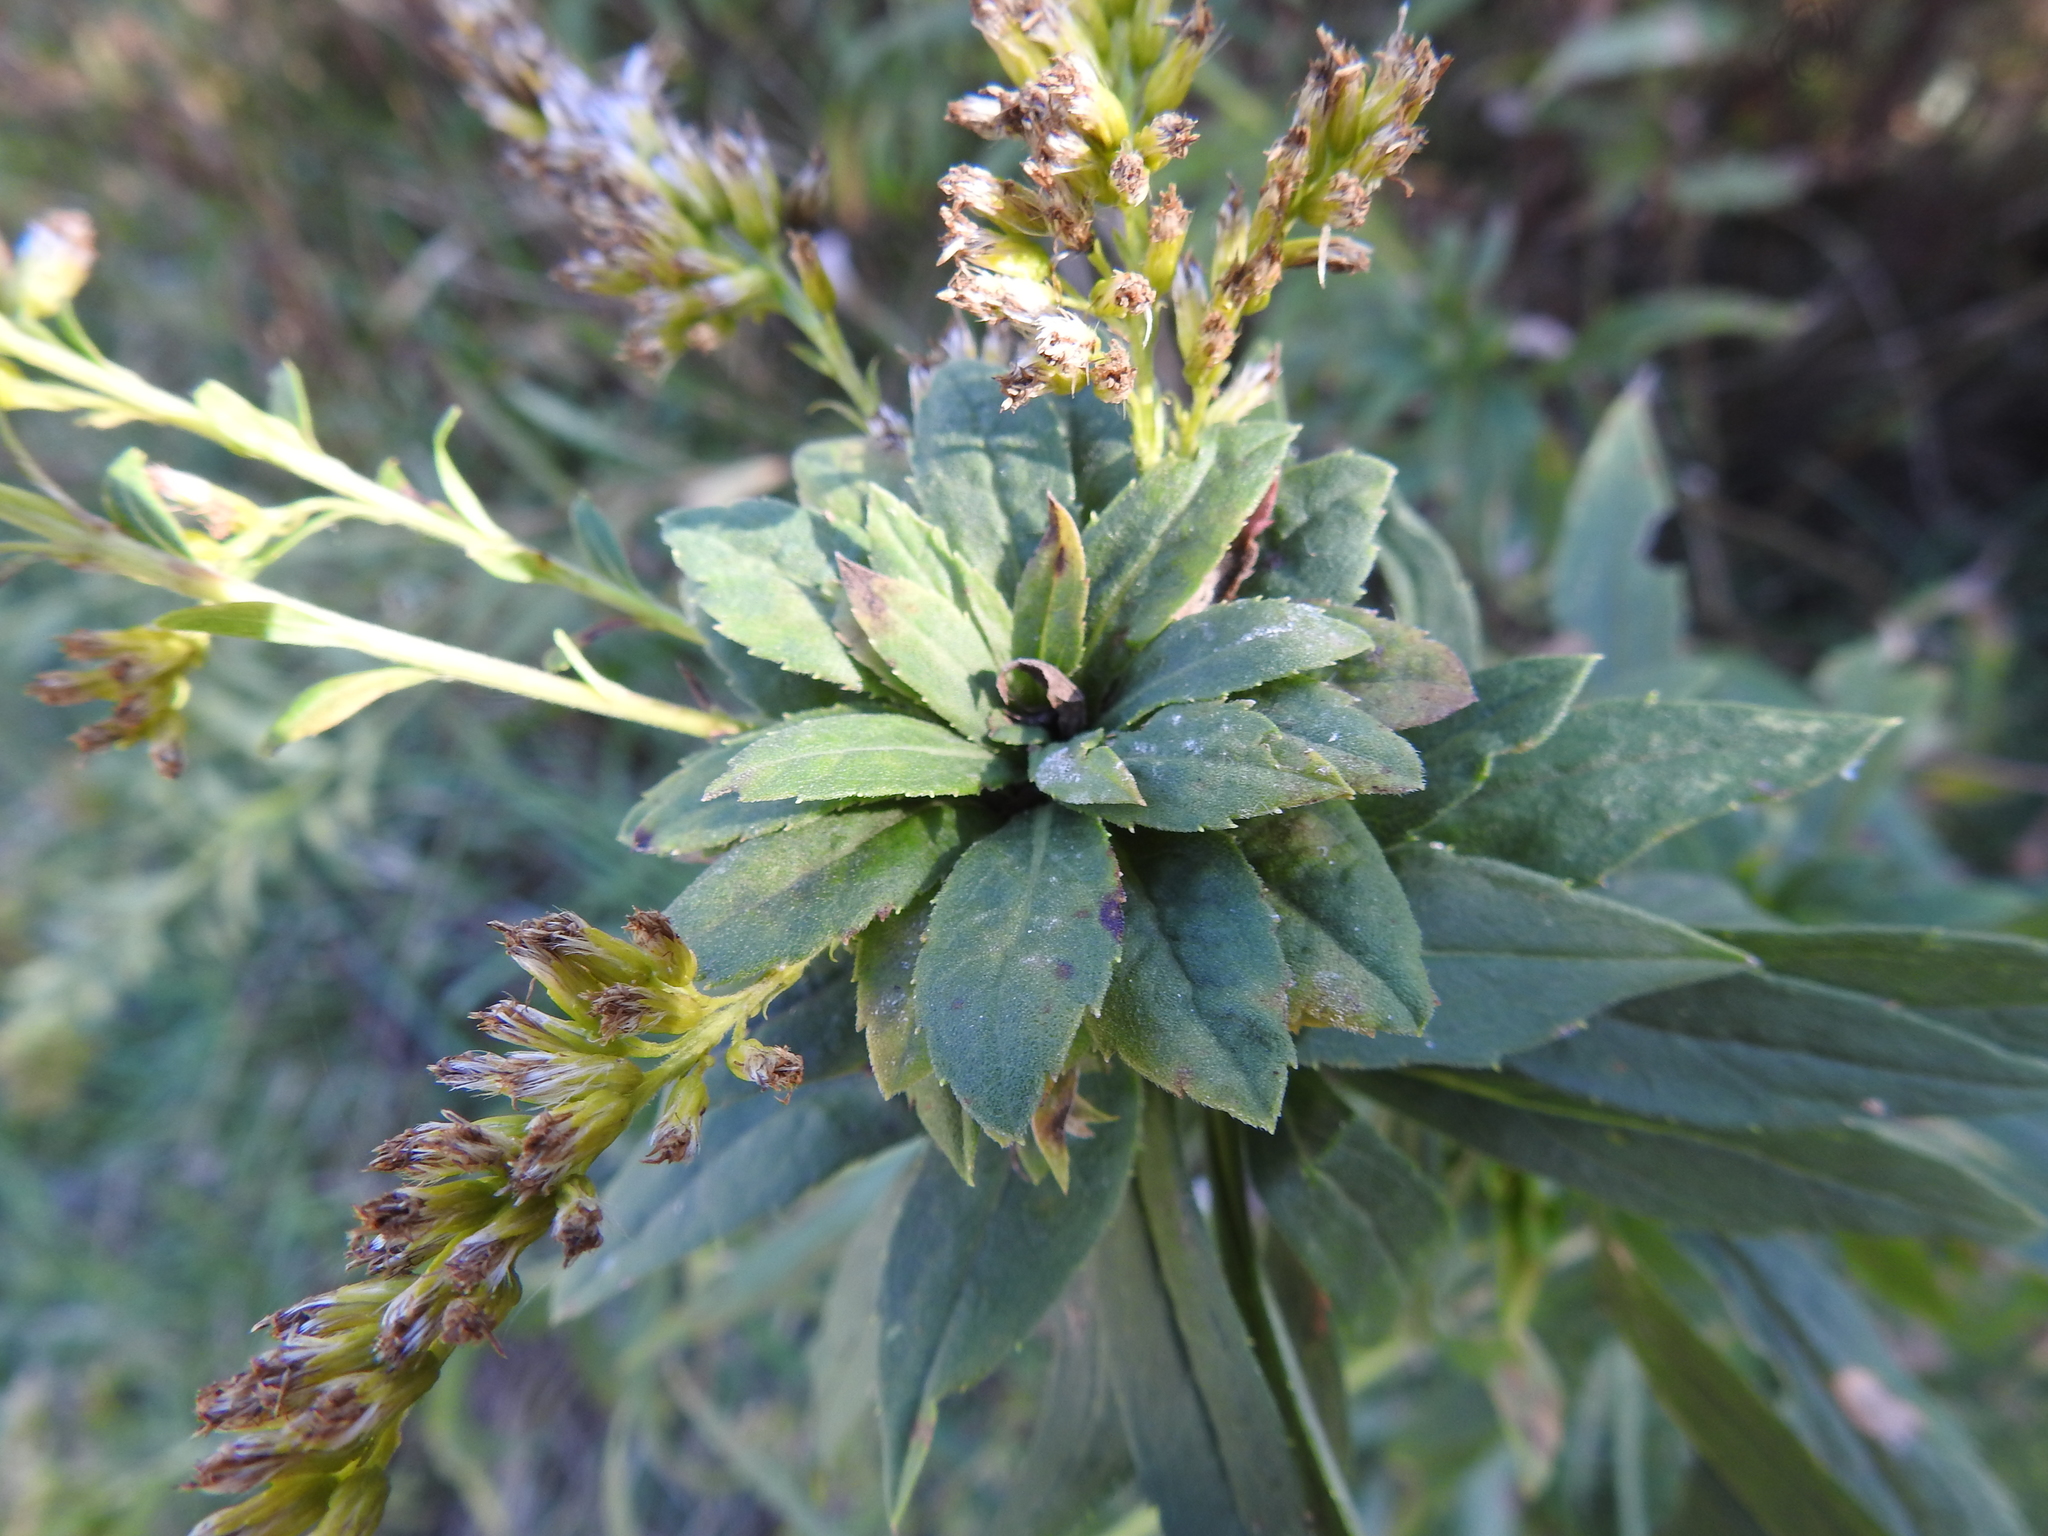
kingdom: Animalia
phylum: Arthropoda
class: Insecta
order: Diptera
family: Cecidomyiidae
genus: Rhopalomyia
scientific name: Rhopalomyia solidaginis
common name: Goldenrod bunch gall midge
